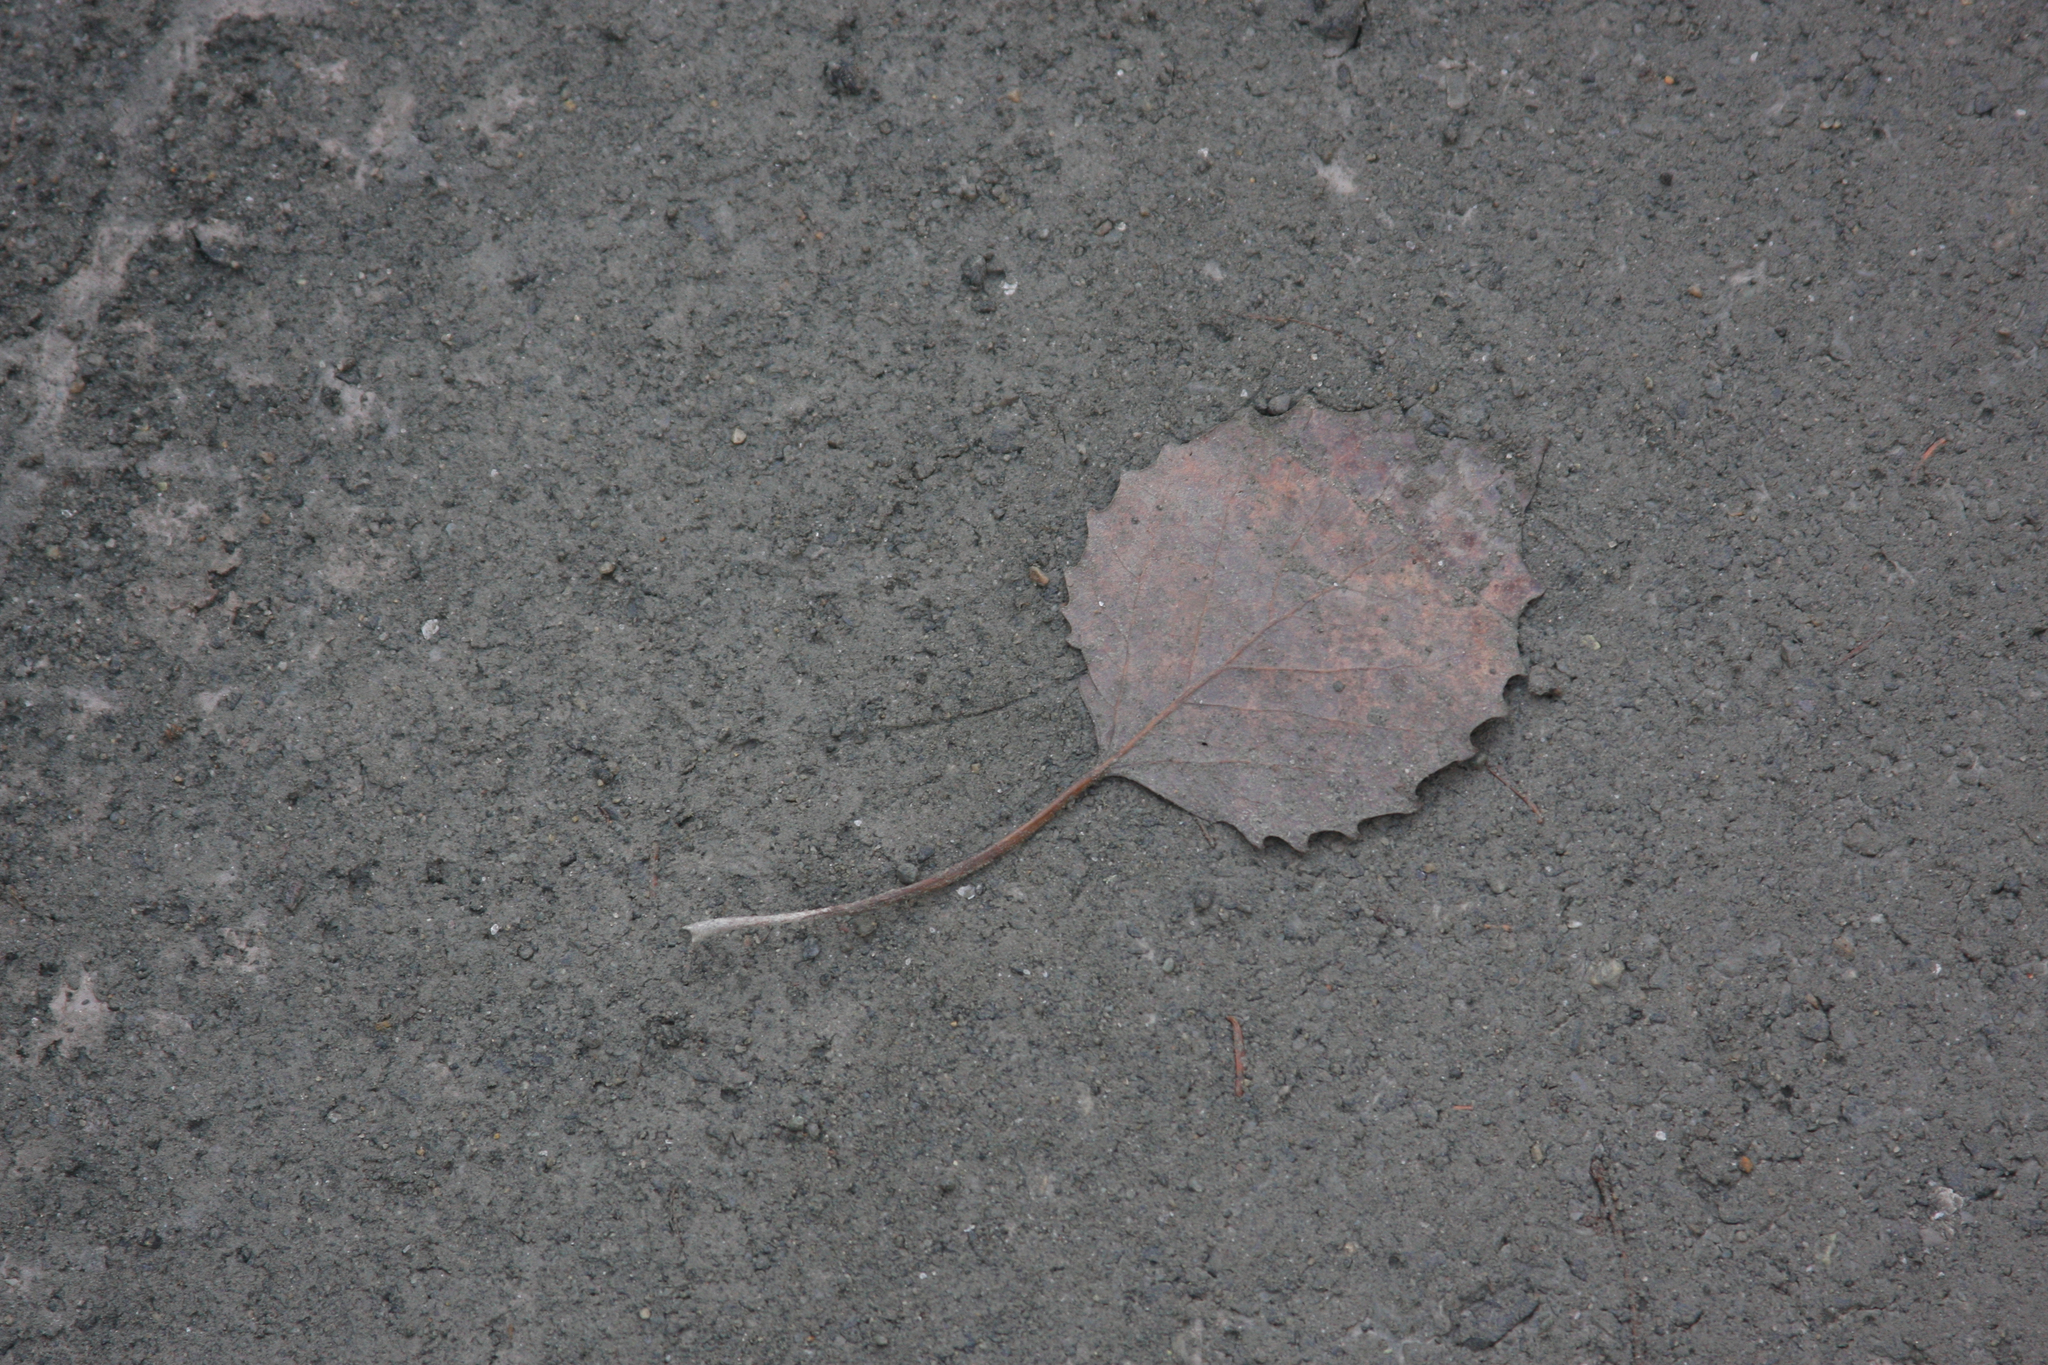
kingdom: Plantae
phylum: Tracheophyta
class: Magnoliopsida
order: Malpighiales
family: Salicaceae
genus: Populus
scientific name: Populus grandidentata
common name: Bigtooth aspen
